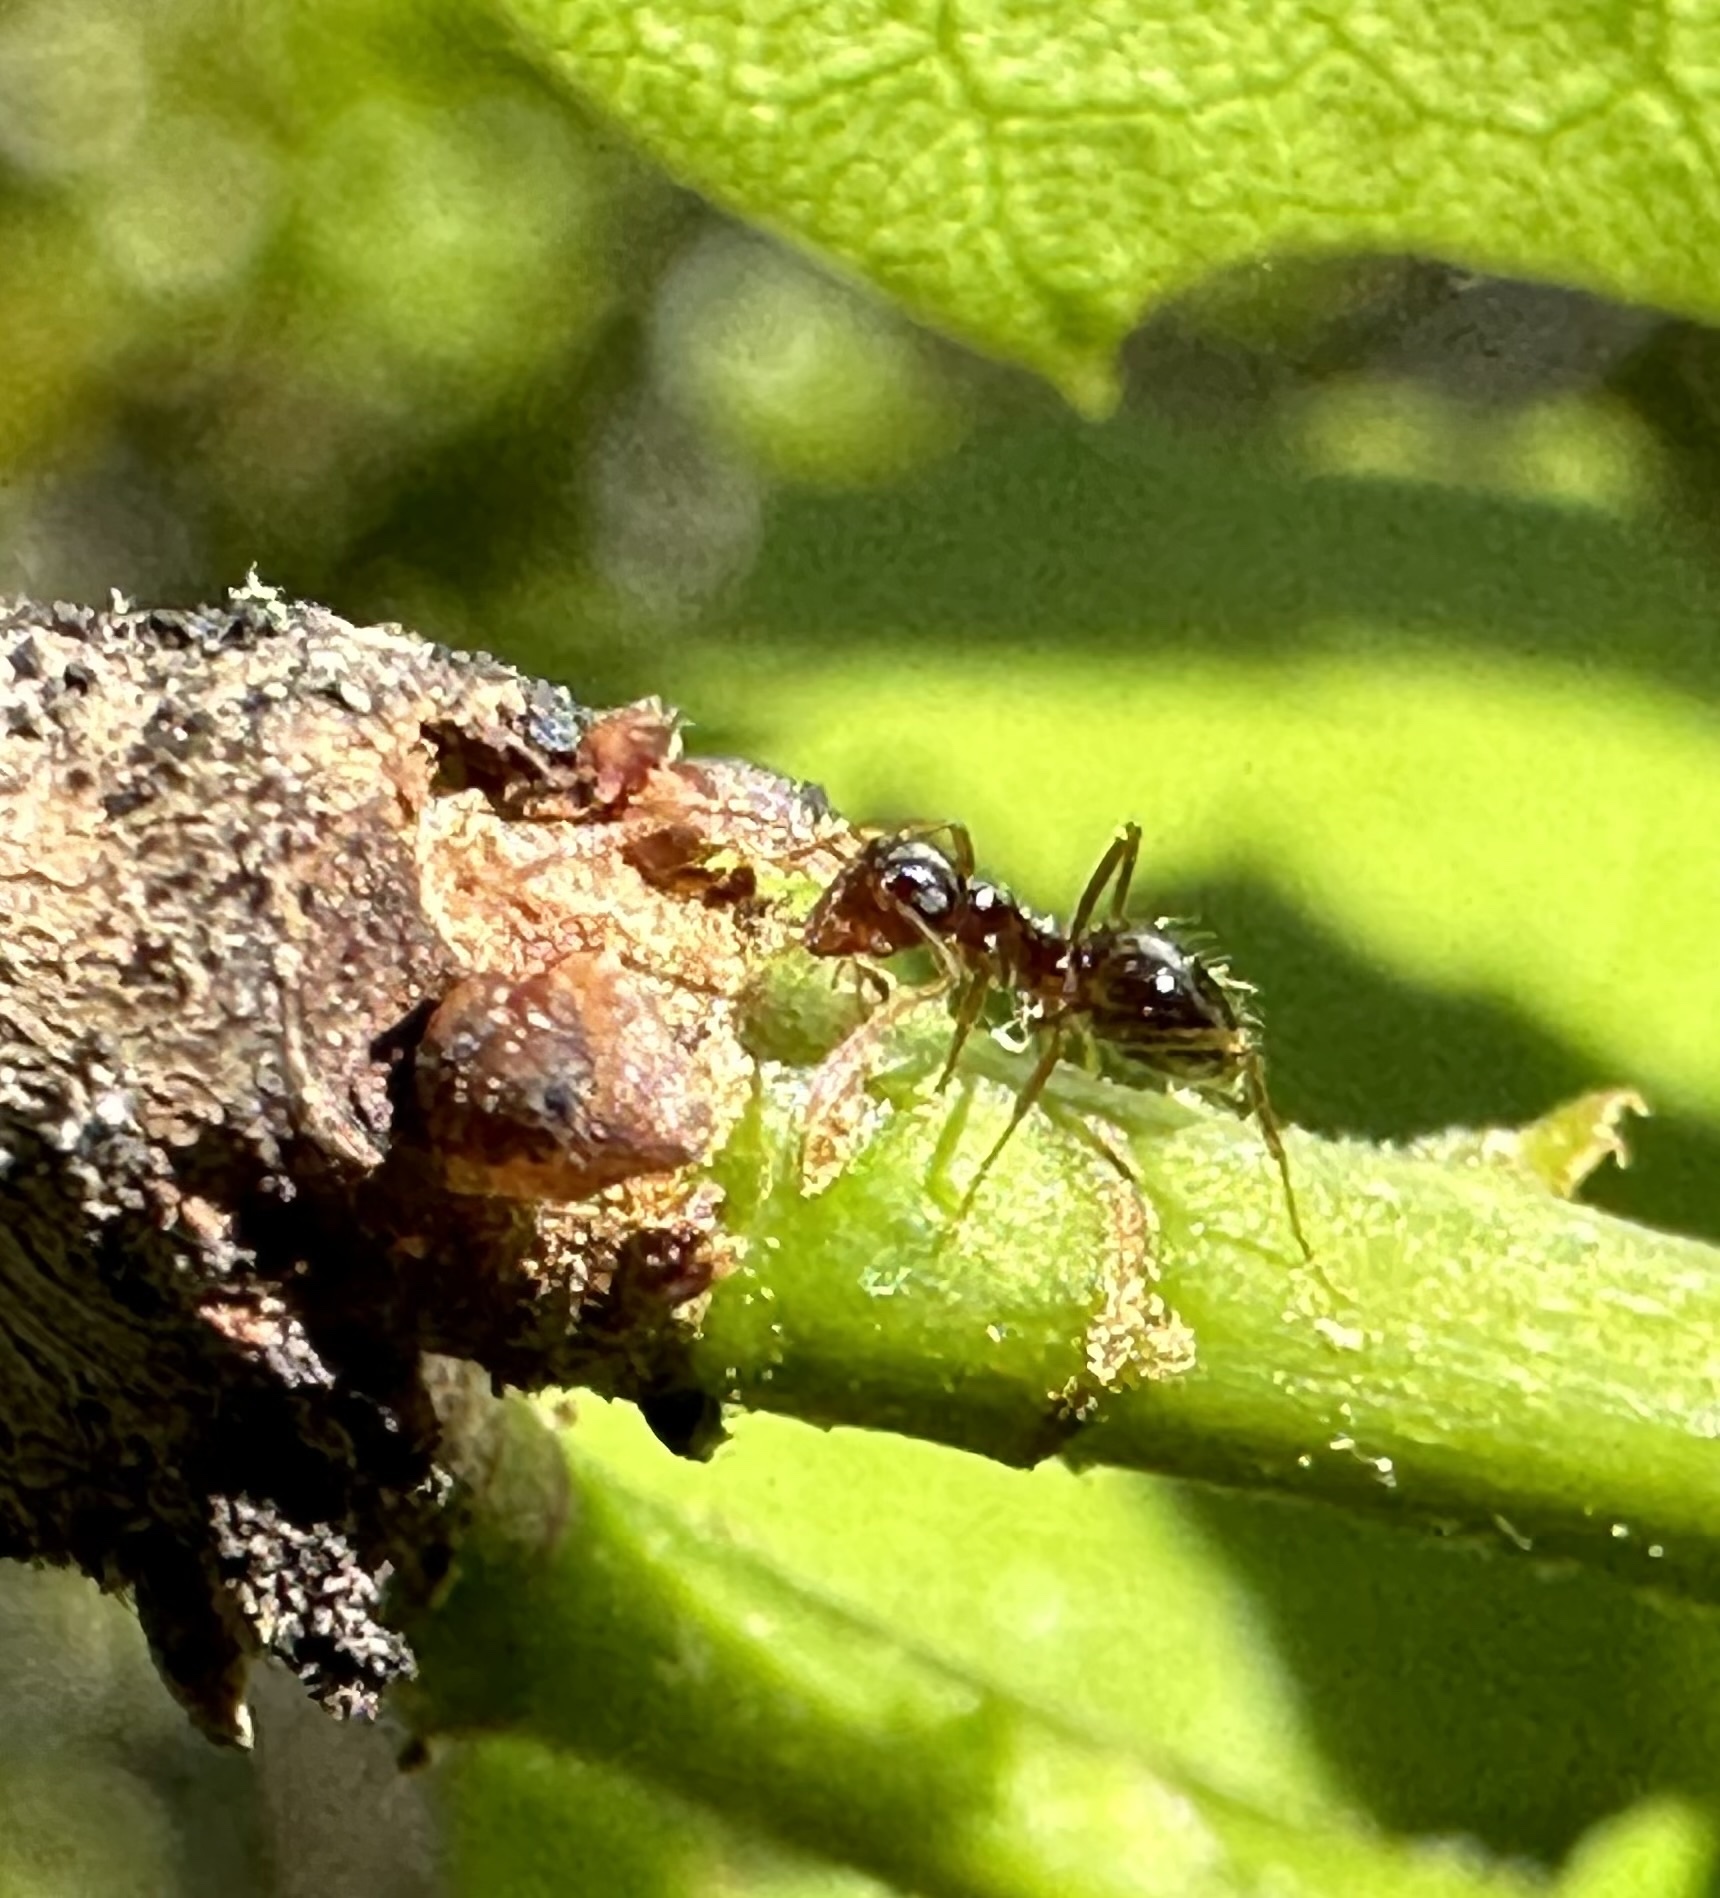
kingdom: Animalia
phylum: Arthropoda
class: Insecta
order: Hymenoptera
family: Formicidae
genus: Prenolepis
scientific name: Prenolepis imparis
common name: Small honey ant
